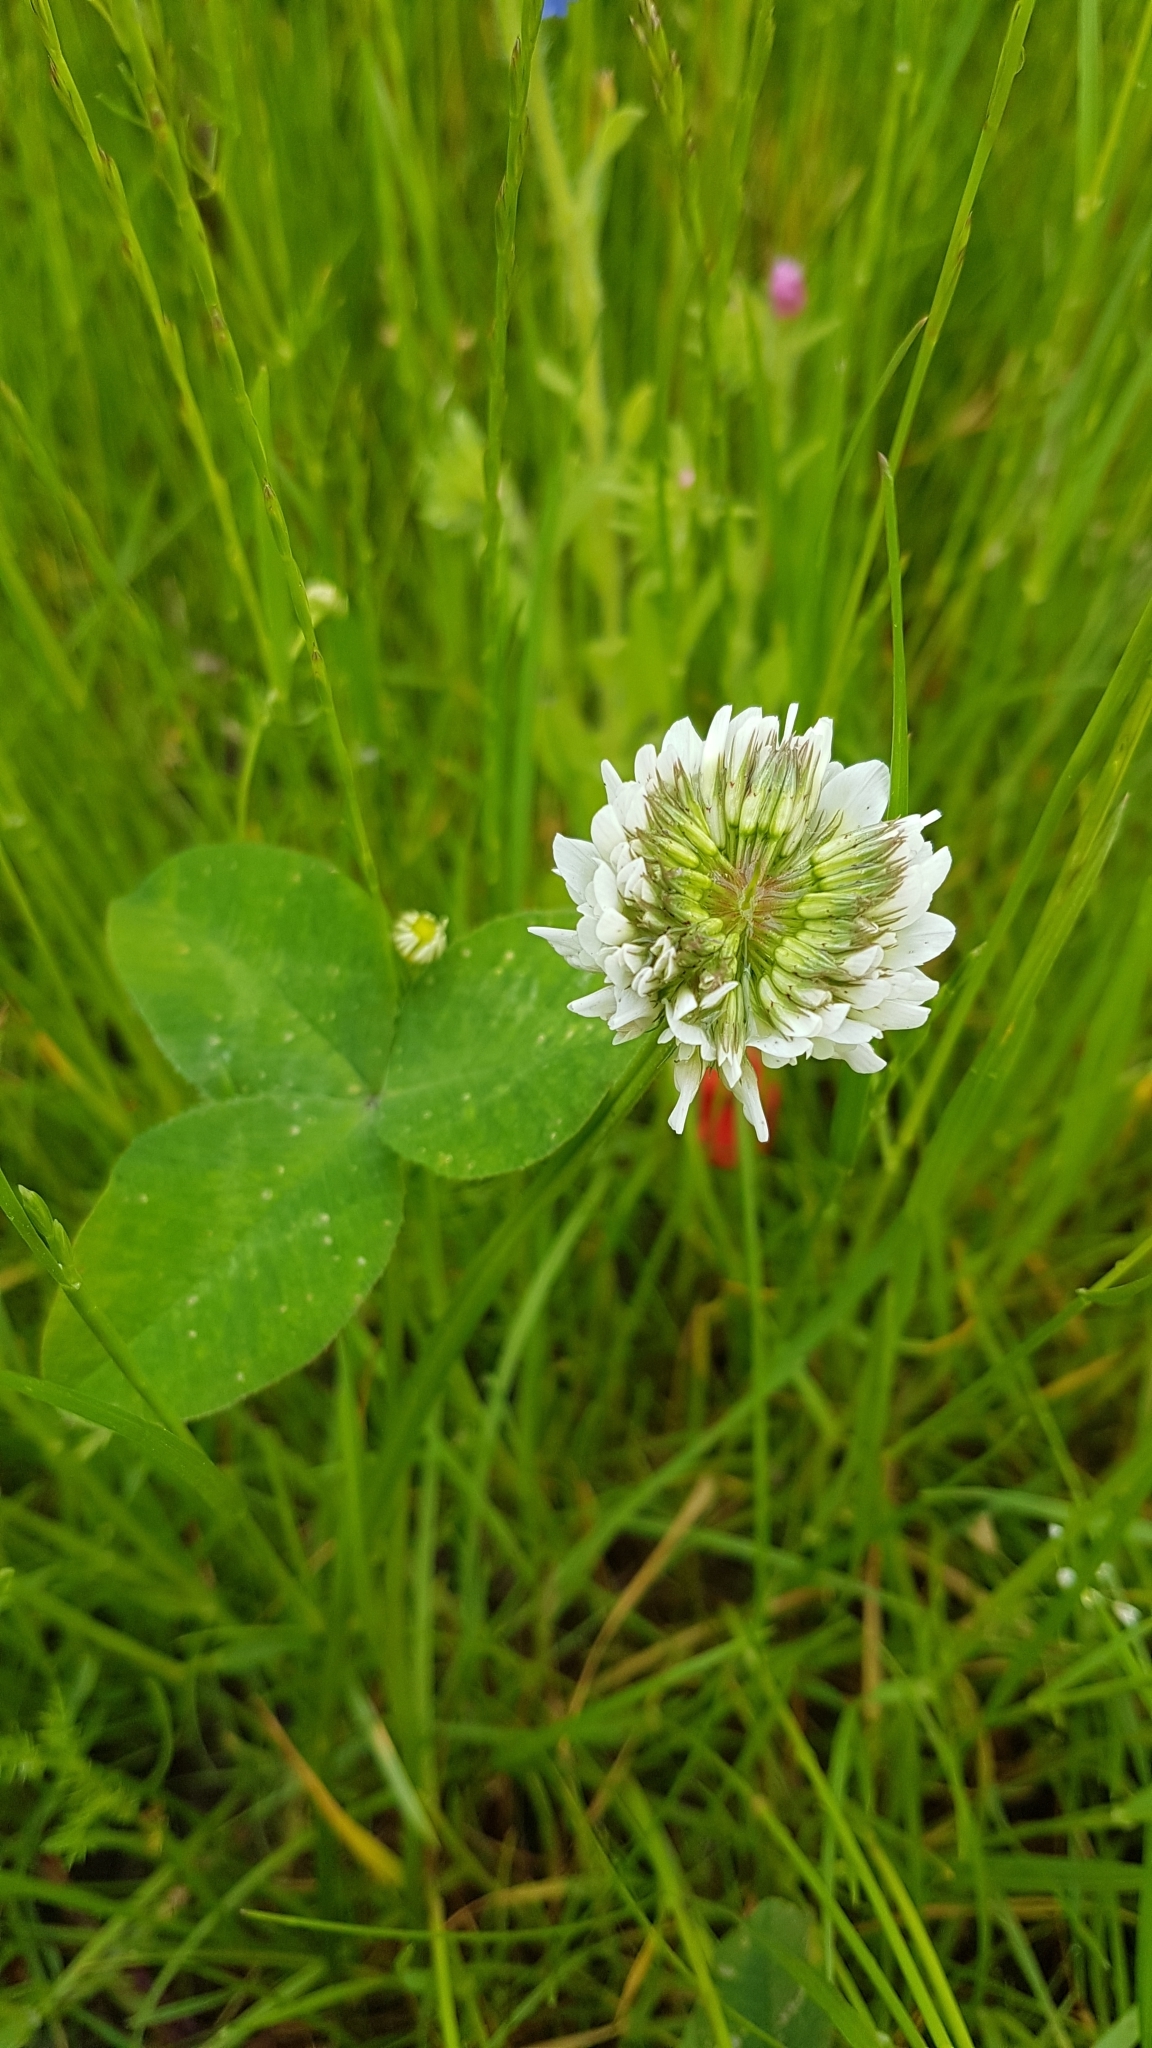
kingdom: Plantae
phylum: Tracheophyta
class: Magnoliopsida
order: Fabales
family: Fabaceae
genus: Trifolium
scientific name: Trifolium repens
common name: White clover
